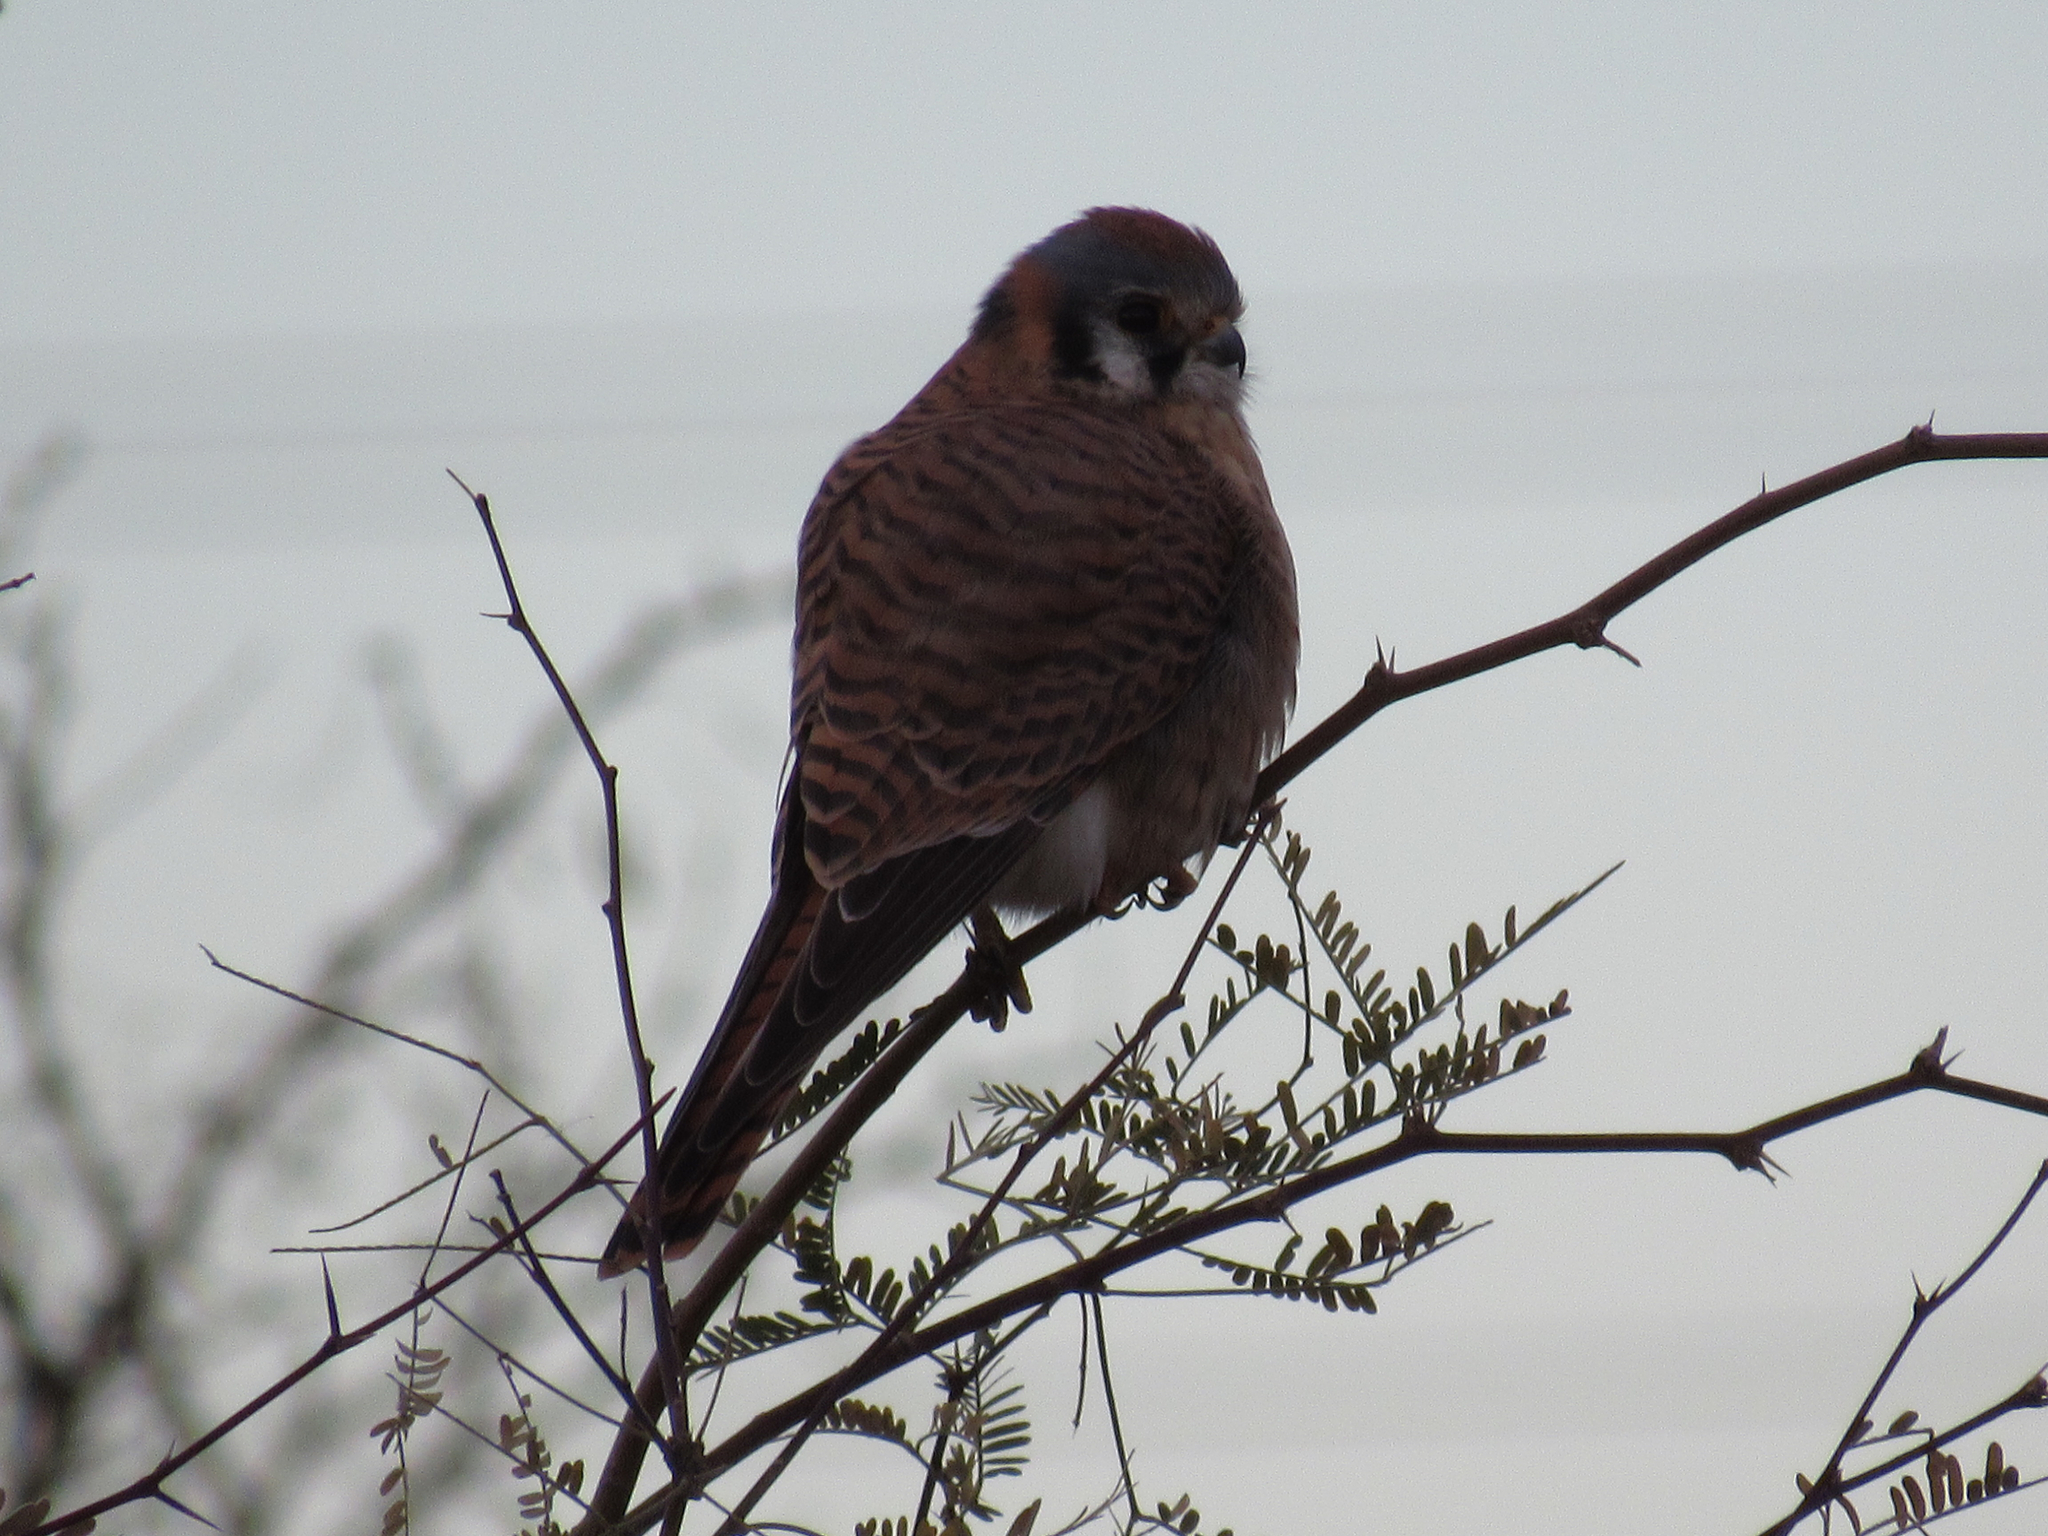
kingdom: Animalia
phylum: Chordata
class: Aves
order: Falconiformes
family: Falconidae
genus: Falco
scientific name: Falco sparverius
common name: American kestrel
